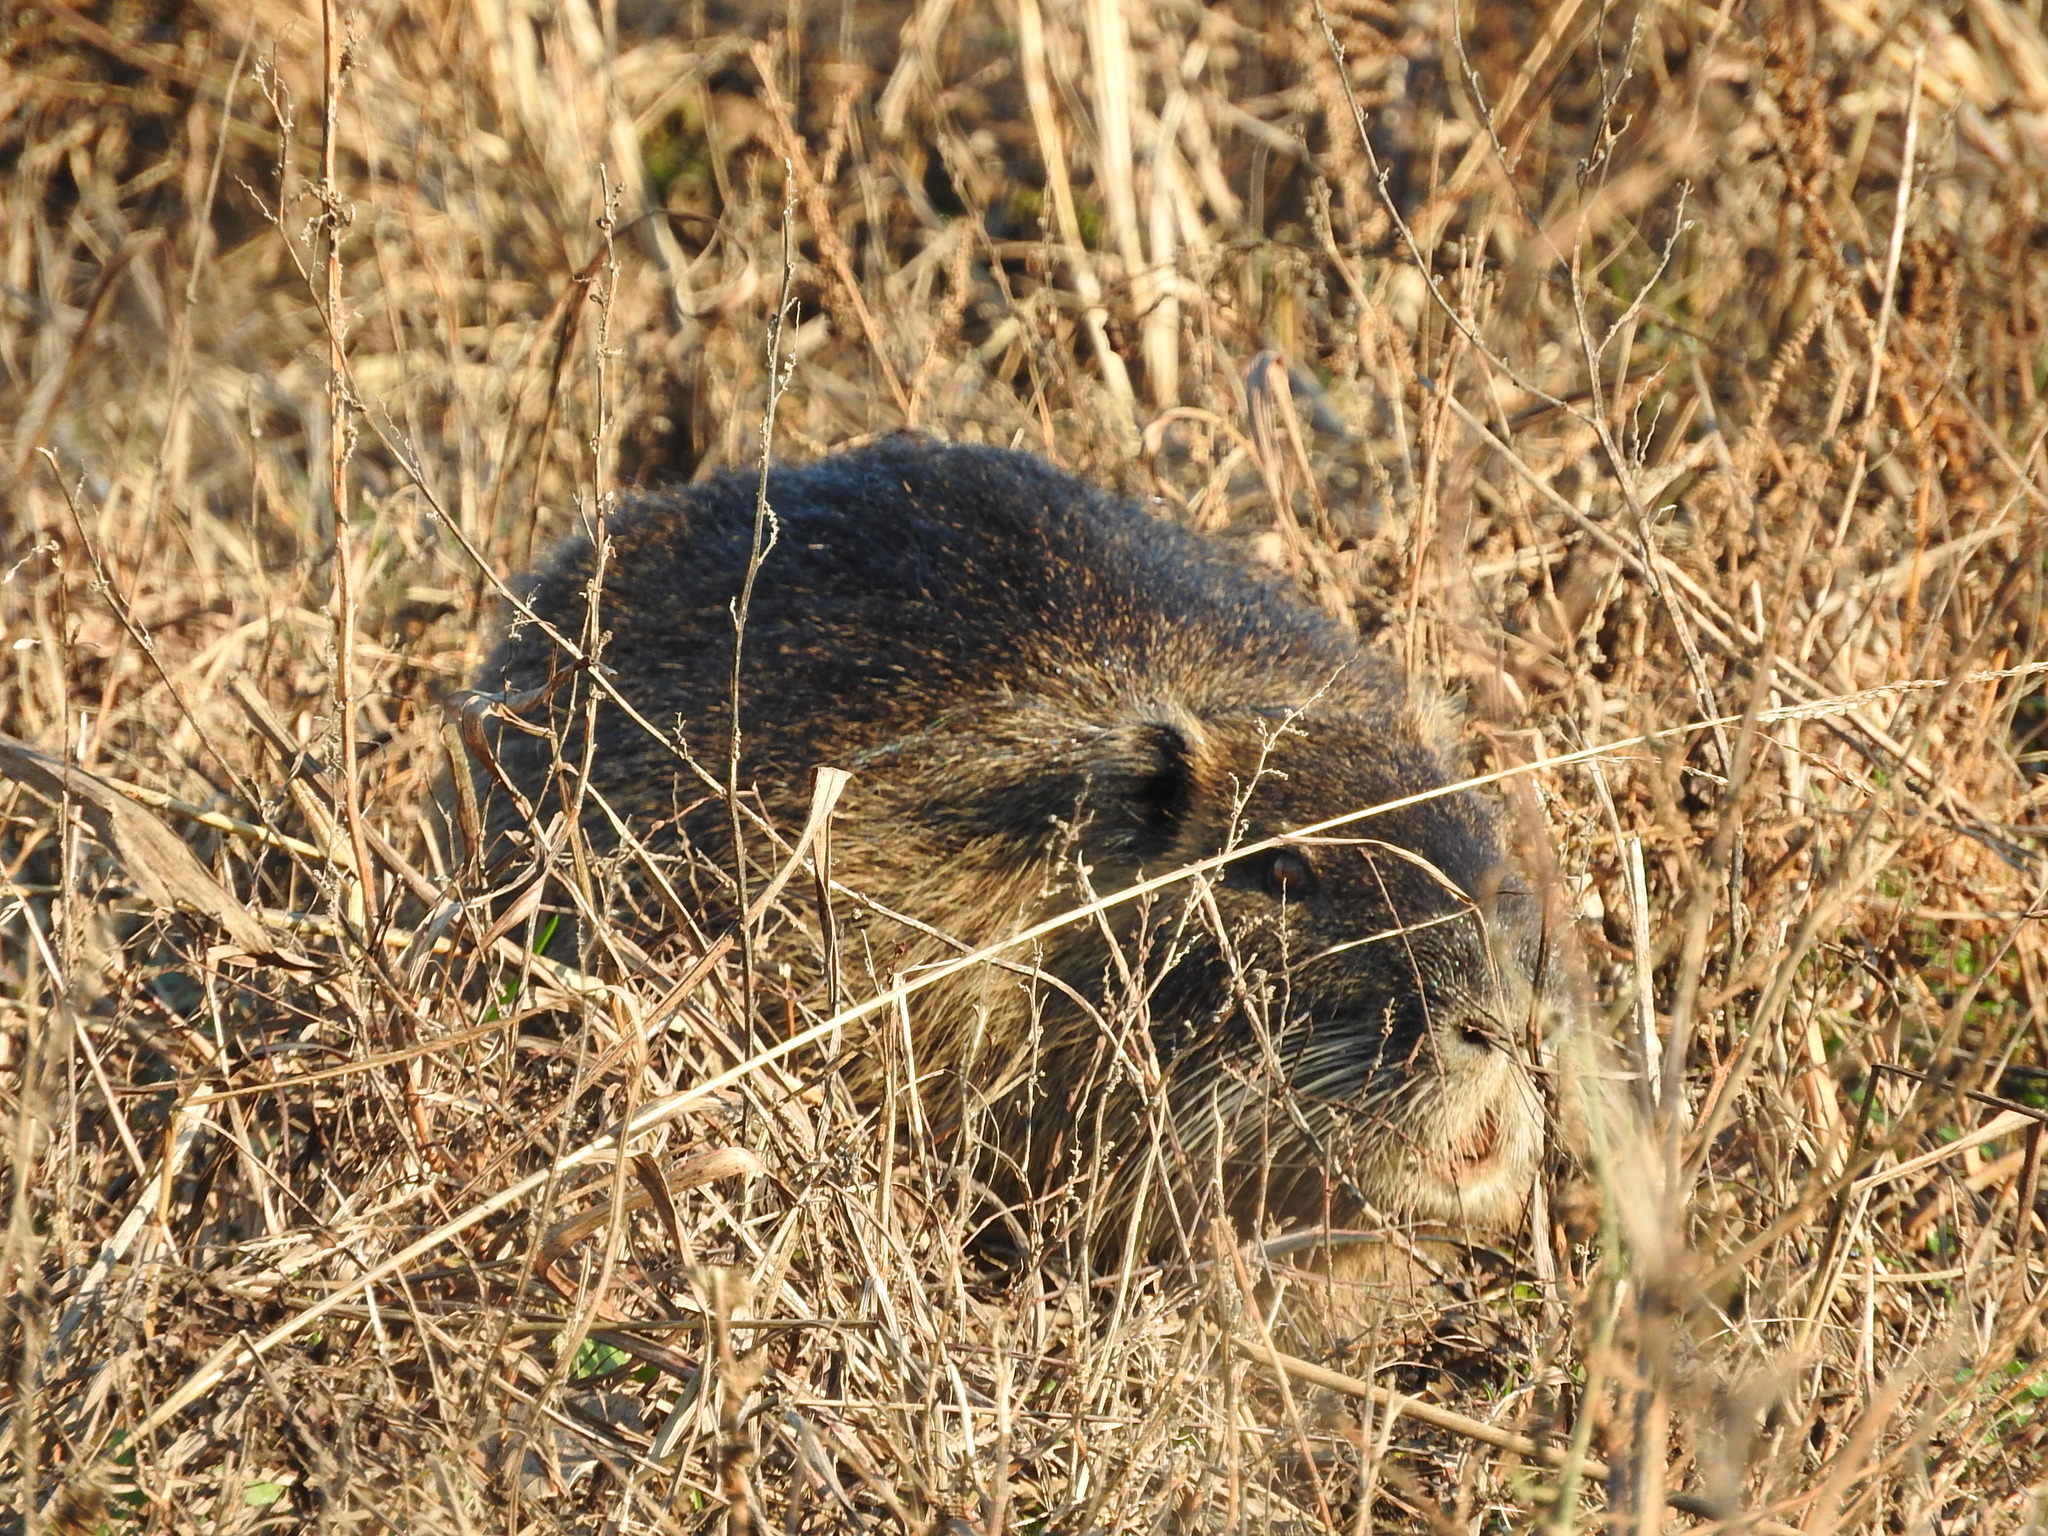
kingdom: Animalia
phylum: Chordata
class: Mammalia
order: Rodentia
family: Myocastoridae
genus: Myocastor
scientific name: Myocastor coypus
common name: Coypu
